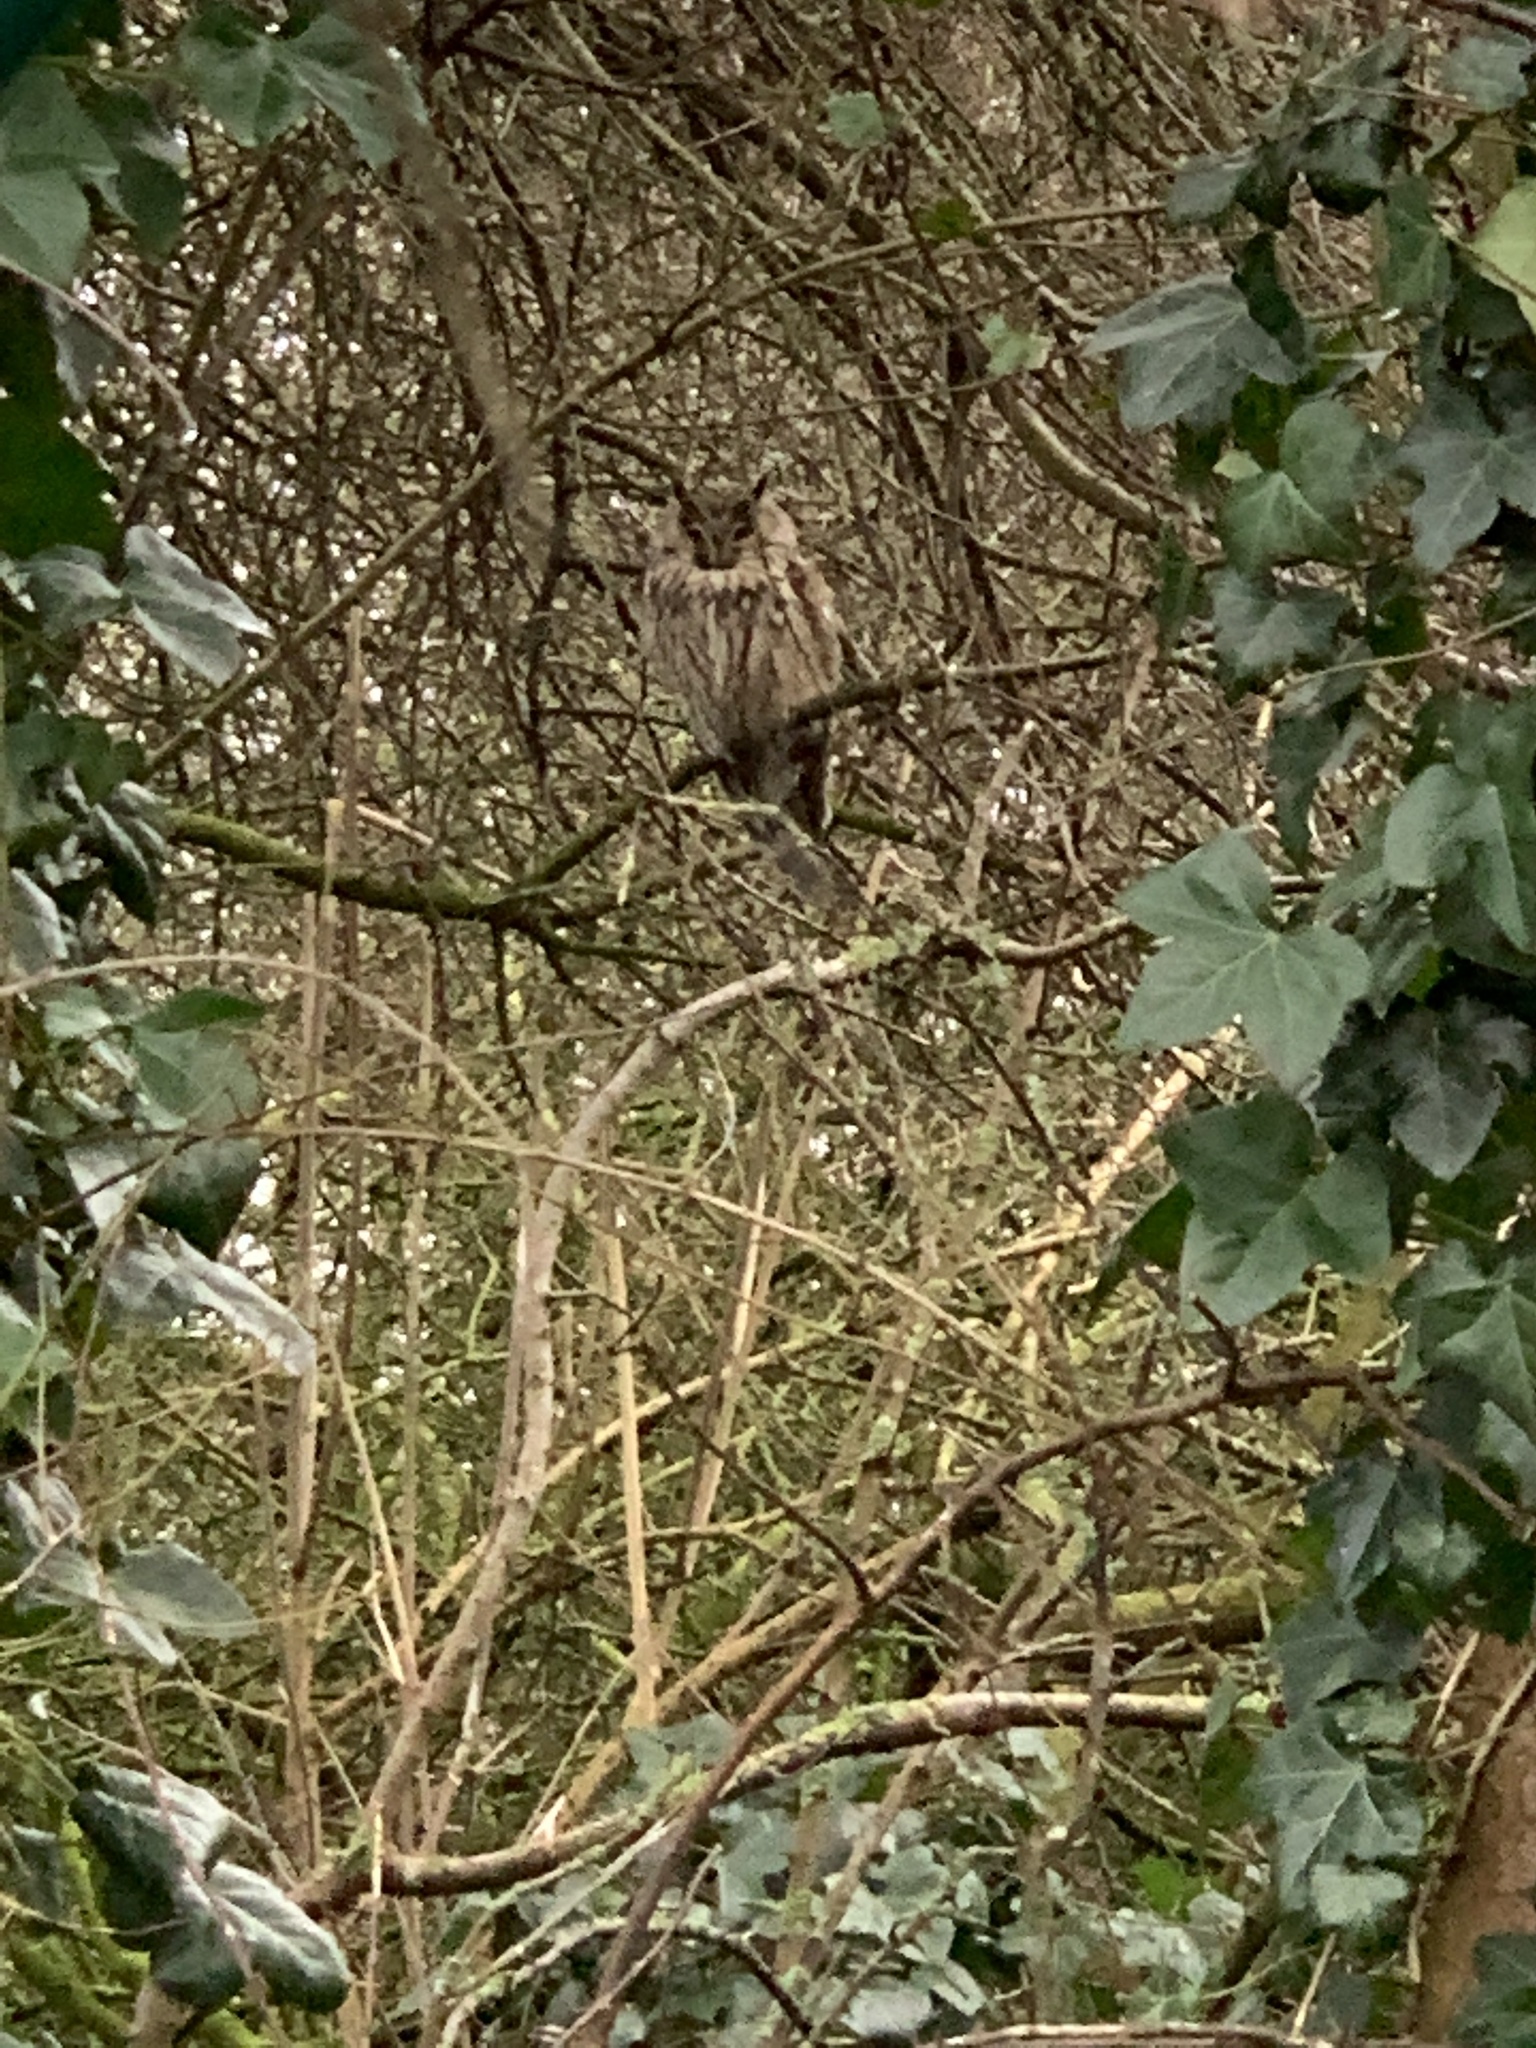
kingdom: Animalia
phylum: Chordata
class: Aves
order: Strigiformes
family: Strigidae
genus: Asio
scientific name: Asio otus
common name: Long-eared owl
